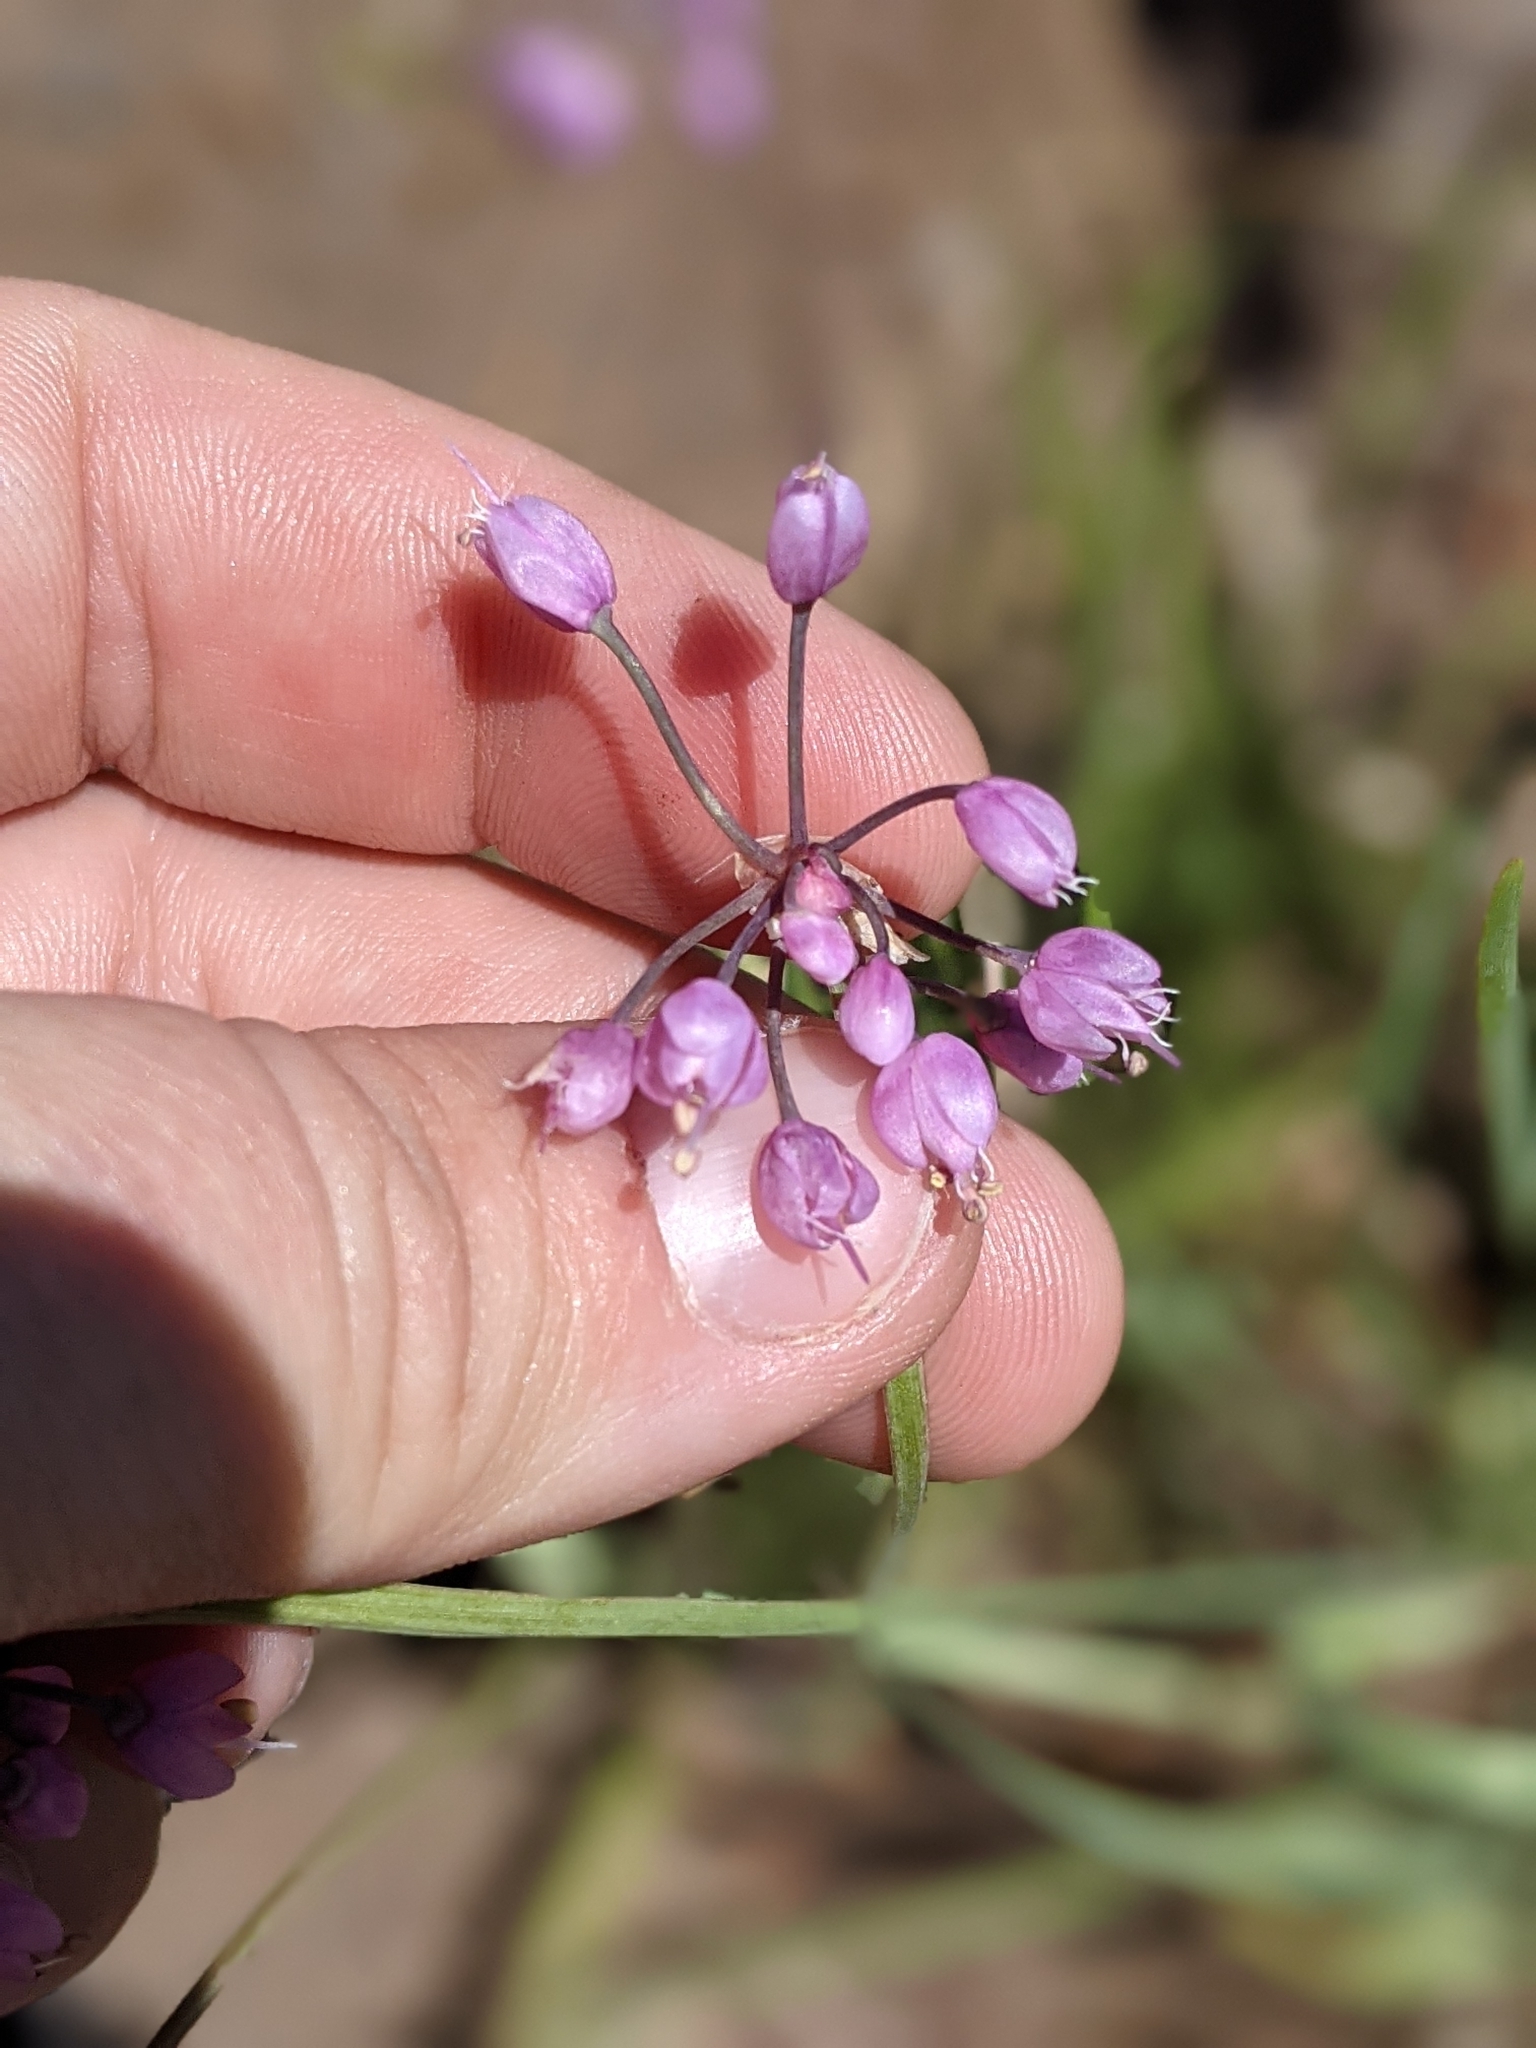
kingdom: Plantae
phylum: Tracheophyta
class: Liliopsida
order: Asparagales
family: Amaryllidaceae
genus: Allium
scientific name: Allium cernuum
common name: Nodding onion
